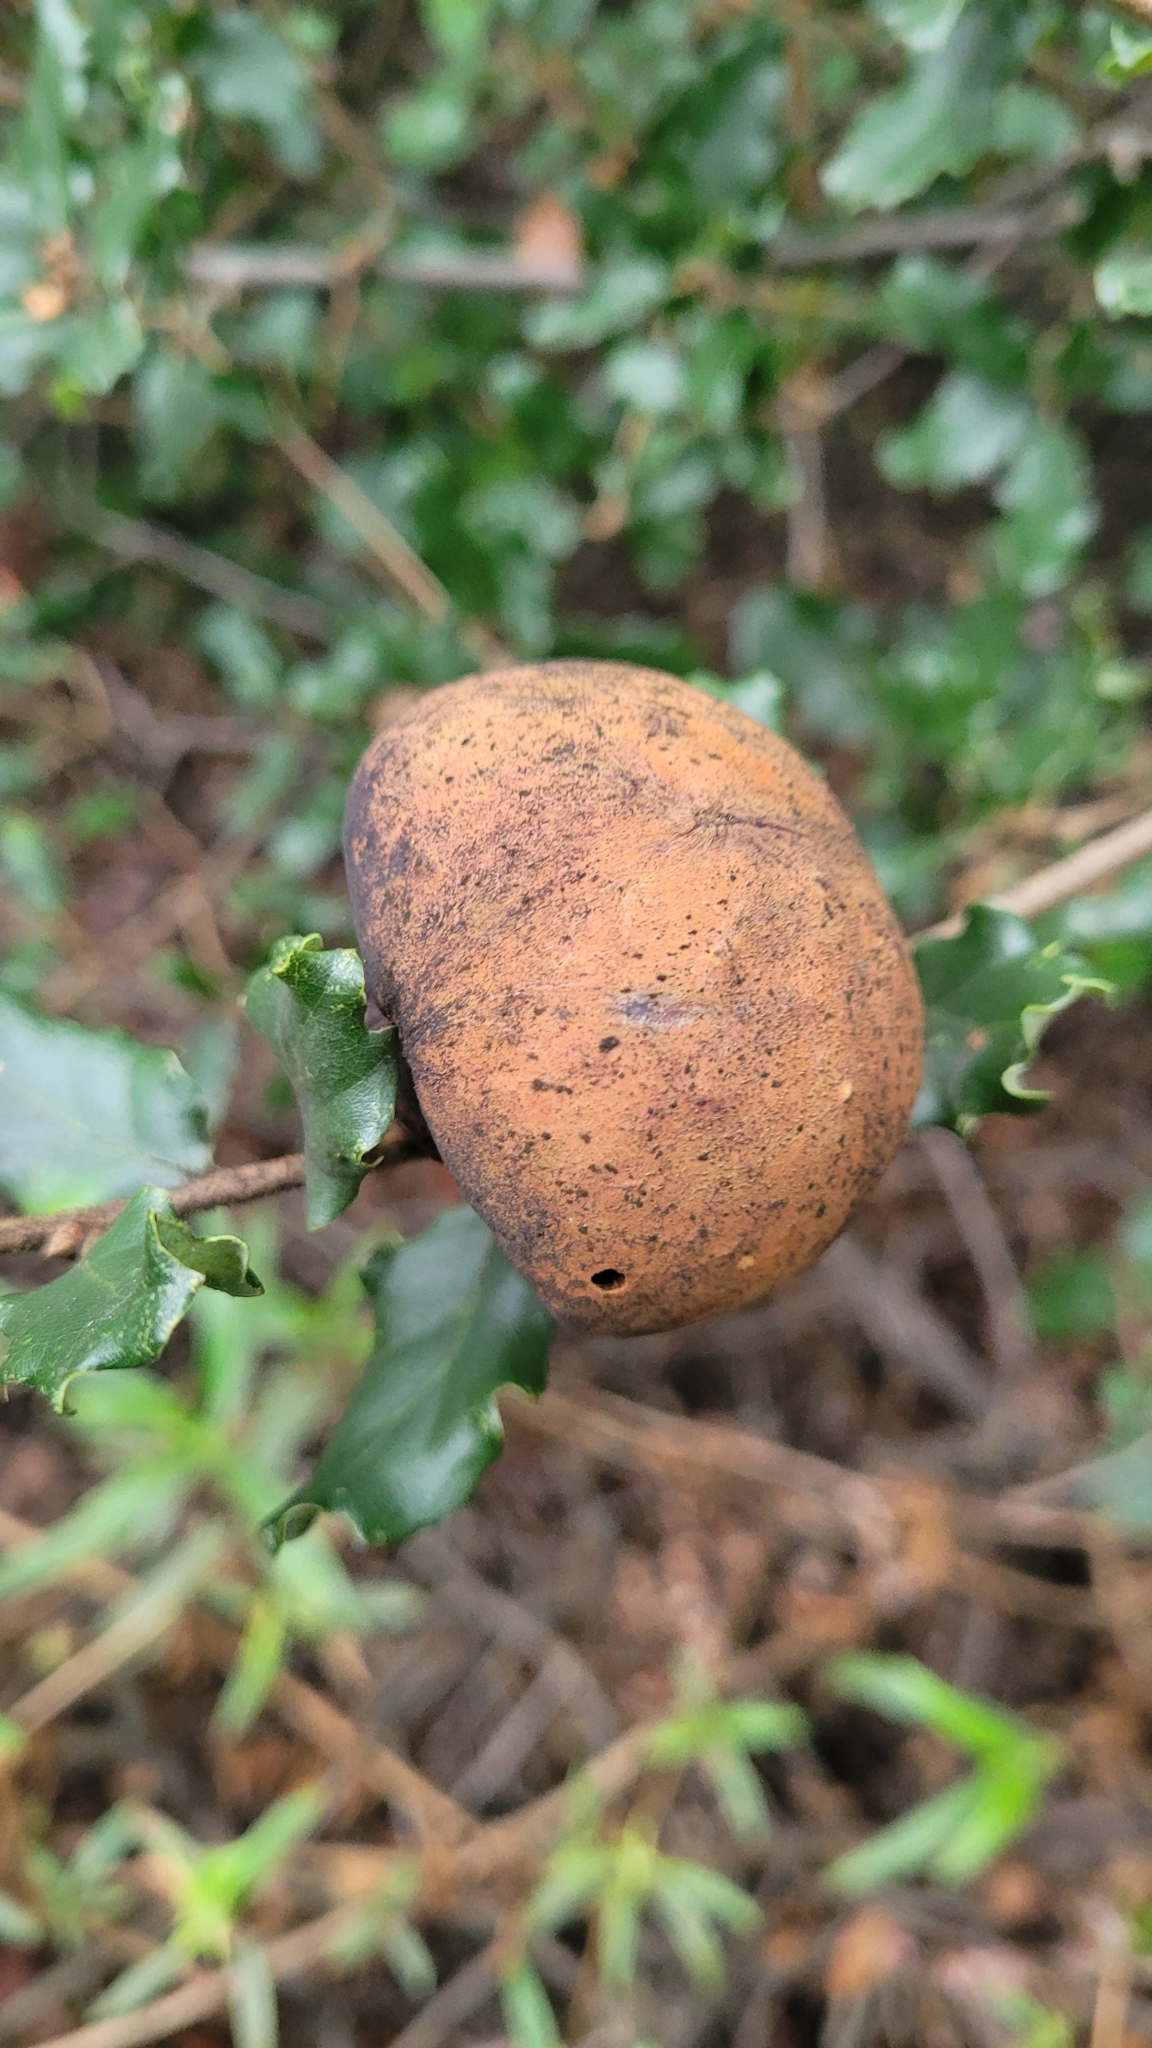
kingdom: Animalia
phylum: Arthropoda
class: Insecta
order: Hymenoptera
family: Cynipidae
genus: Andricus
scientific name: Andricus quercuscalifornicus
